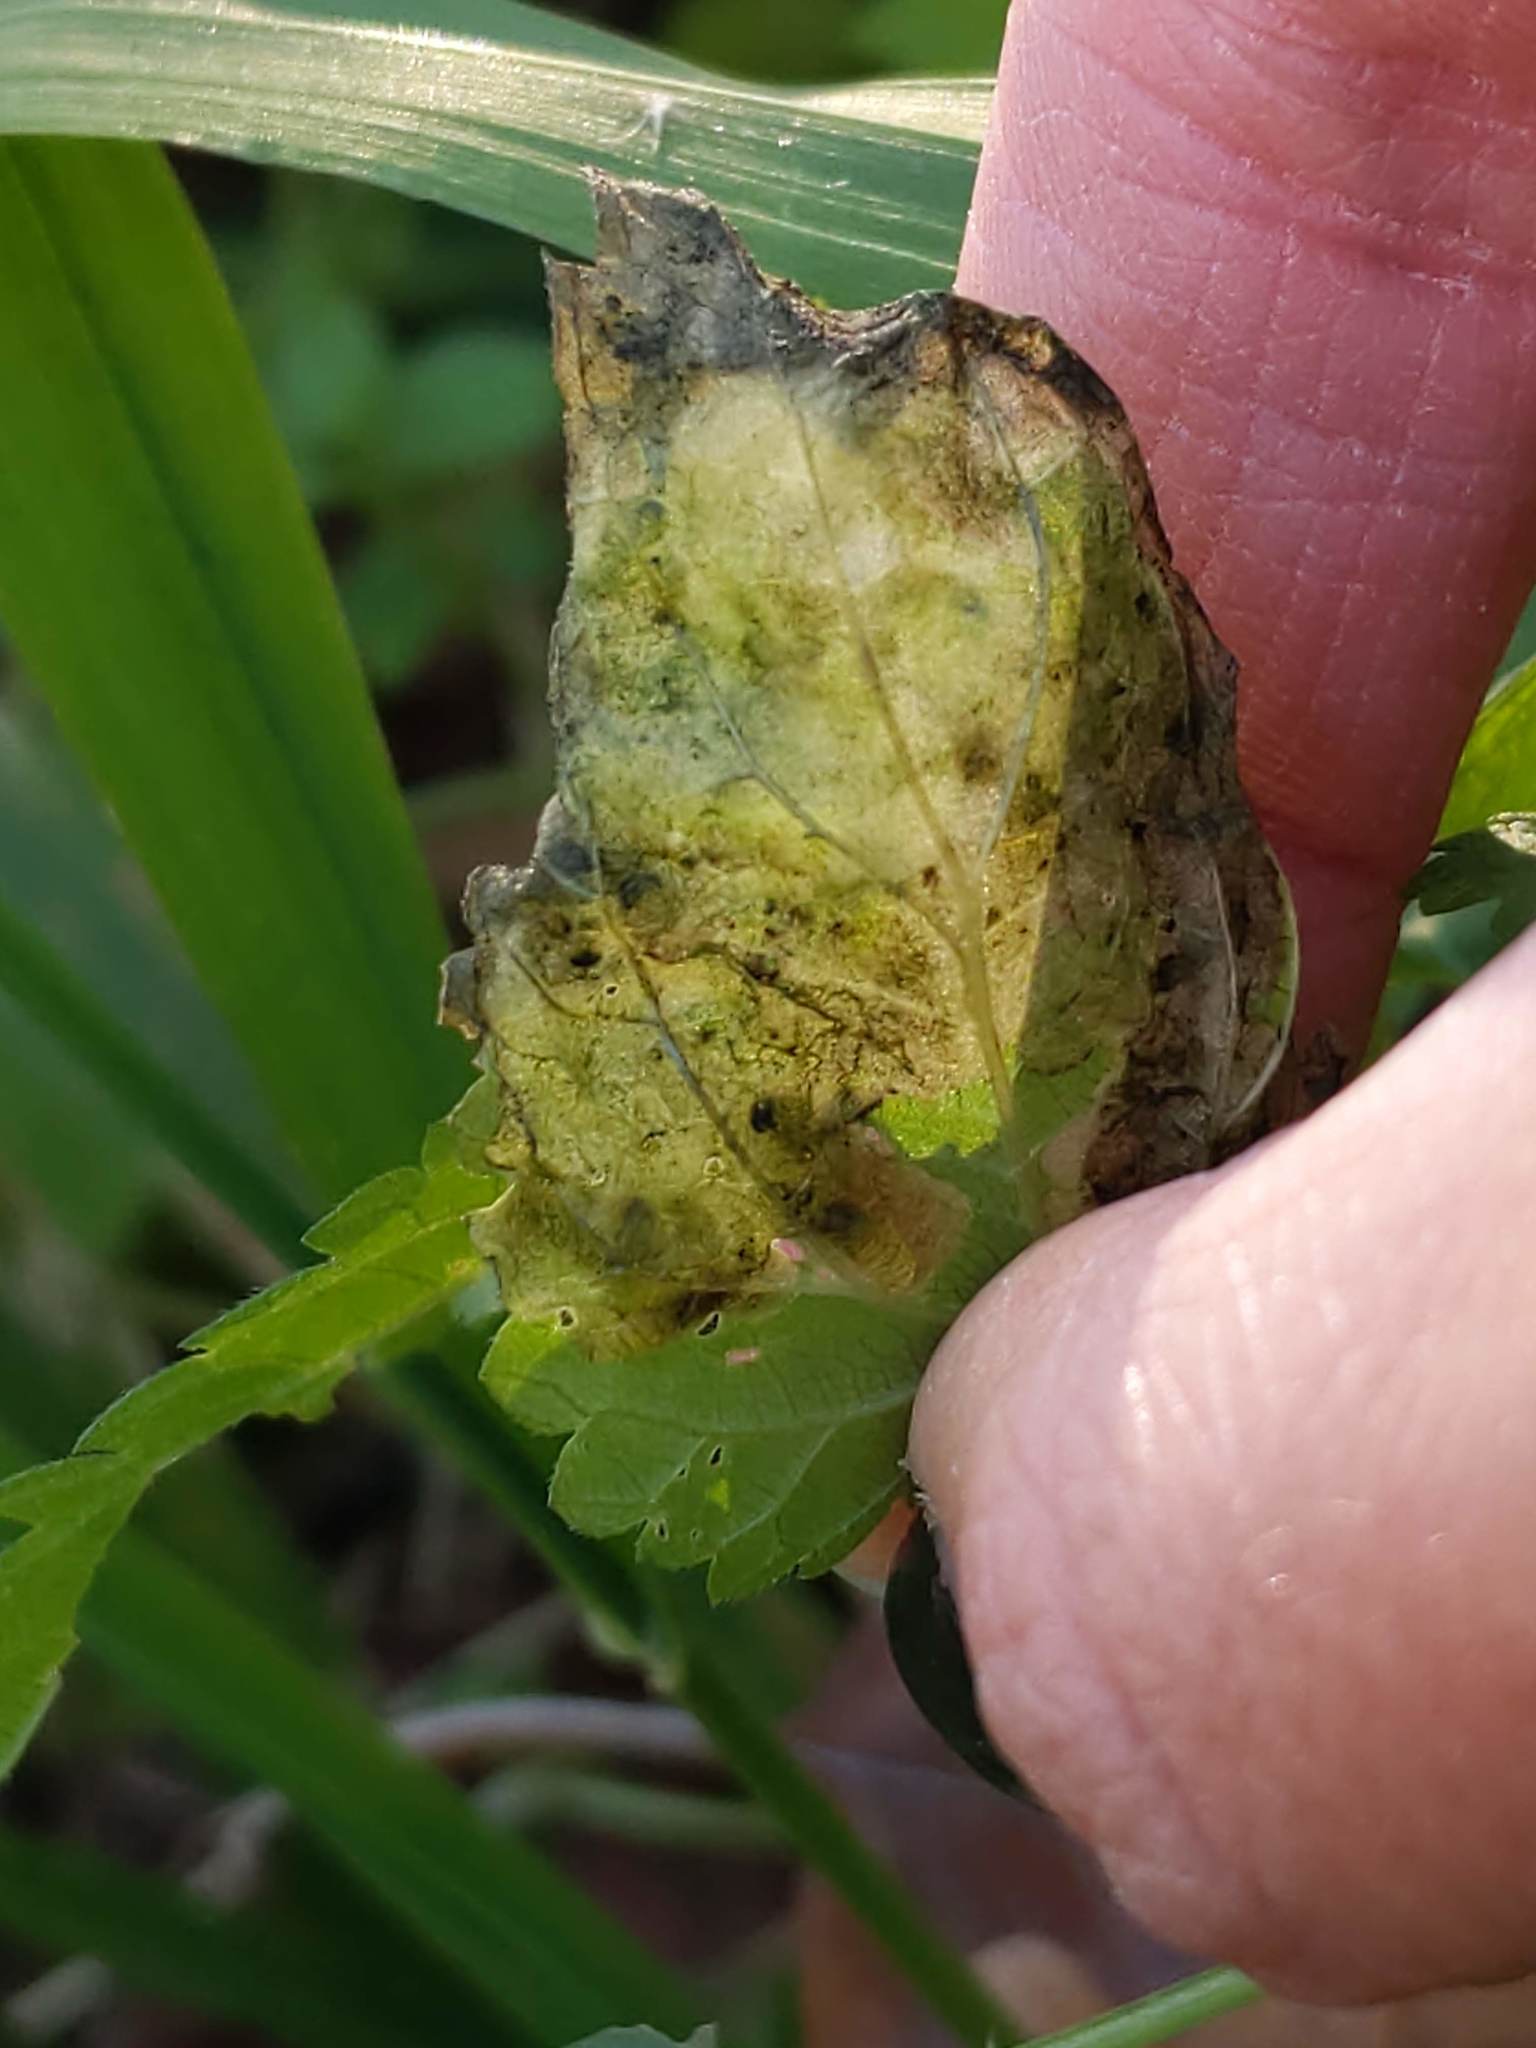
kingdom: Animalia
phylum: Arthropoda
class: Insecta
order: Diptera
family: Agromyzidae
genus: Agromyza
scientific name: Agromyza pseudoreptans
